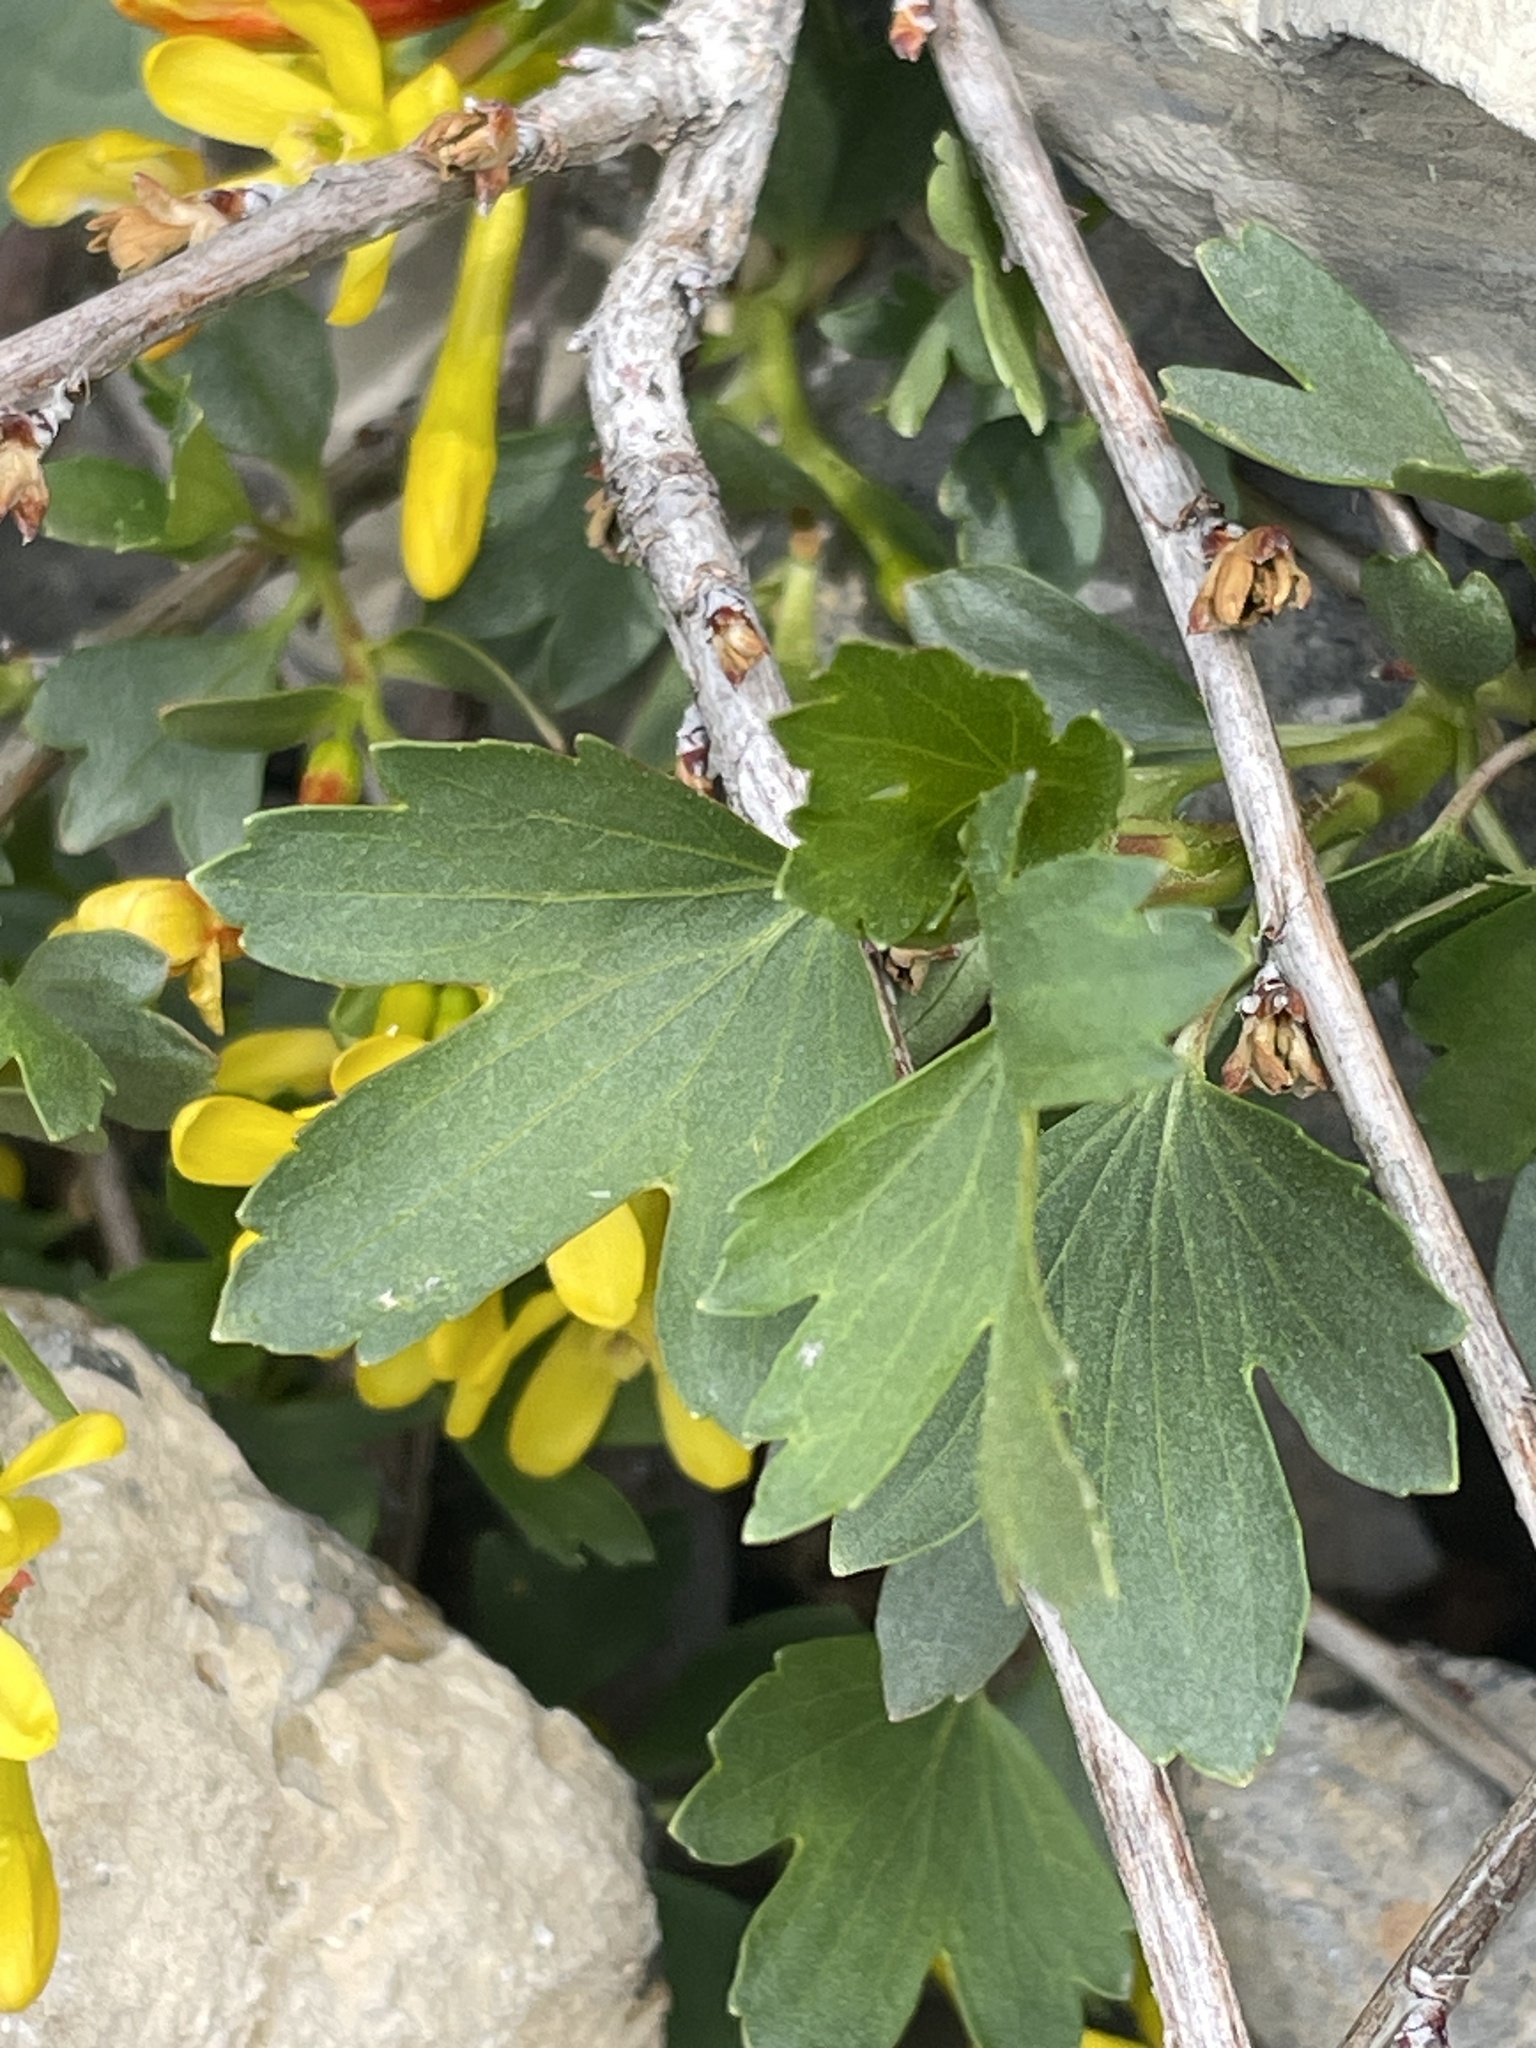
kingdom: Plantae
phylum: Tracheophyta
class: Magnoliopsida
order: Saxifragales
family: Grossulariaceae
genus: Ribes
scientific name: Ribes aureum
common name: Golden currant
